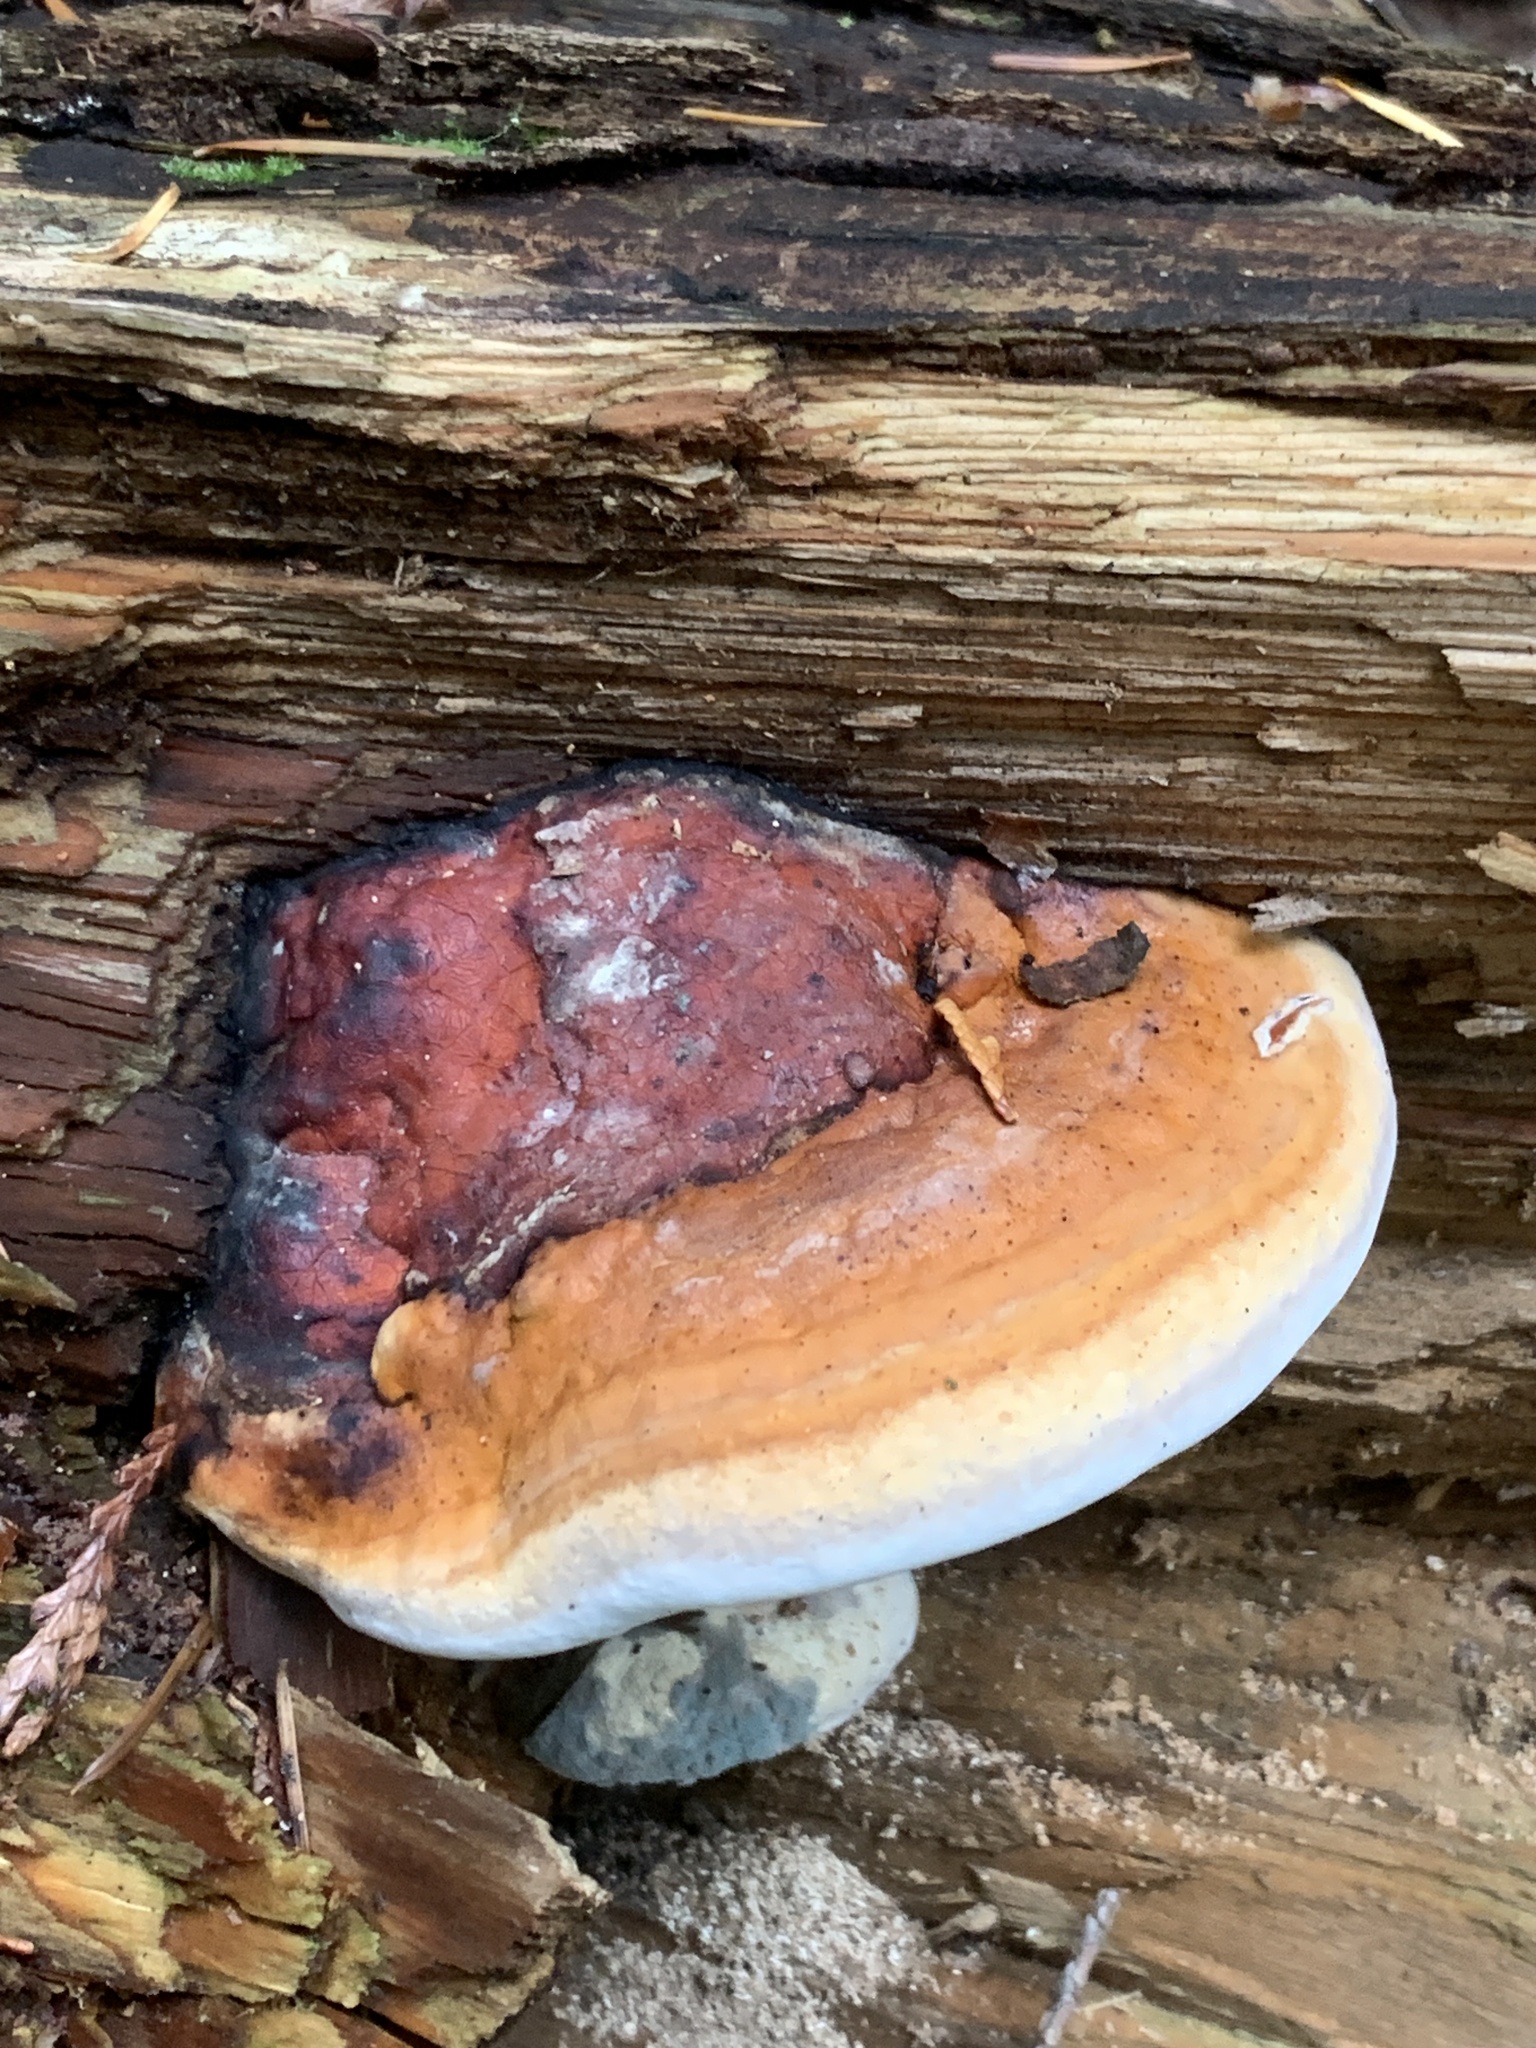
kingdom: Fungi
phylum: Basidiomycota
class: Agaricomycetes
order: Polyporales
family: Fomitopsidaceae
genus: Fomitopsis
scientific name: Fomitopsis mounceae
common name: Northern red belt
